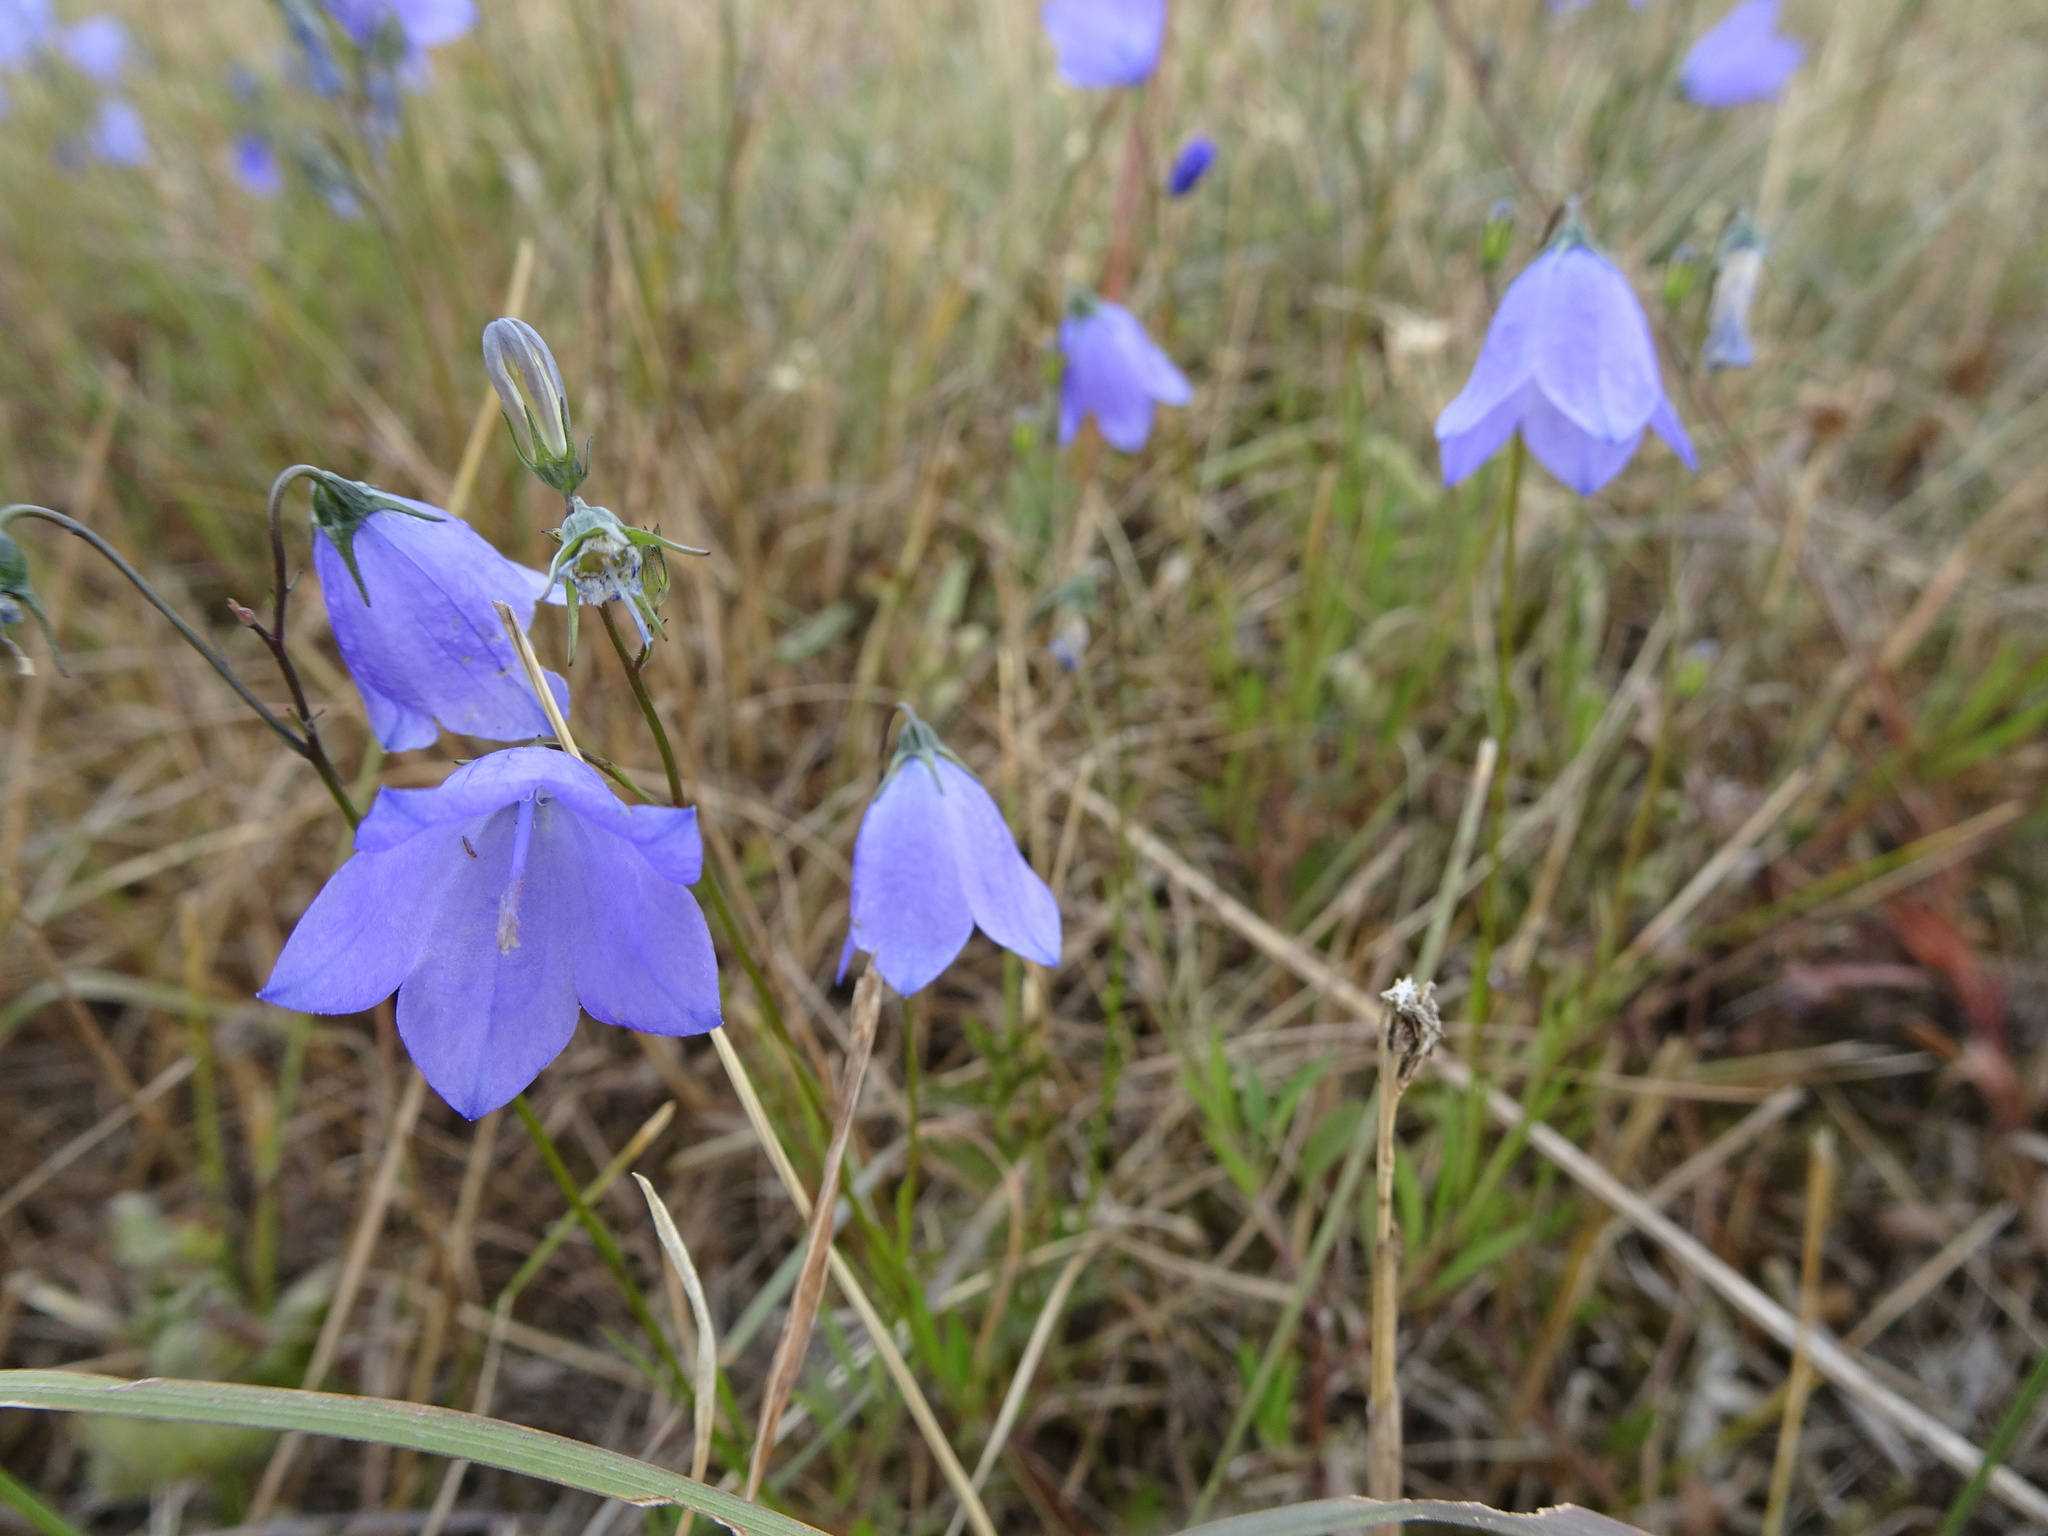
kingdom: Plantae
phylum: Tracheophyta
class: Magnoliopsida
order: Asterales
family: Campanulaceae
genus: Campanula
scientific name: Campanula rotundifolia
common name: Harebell
